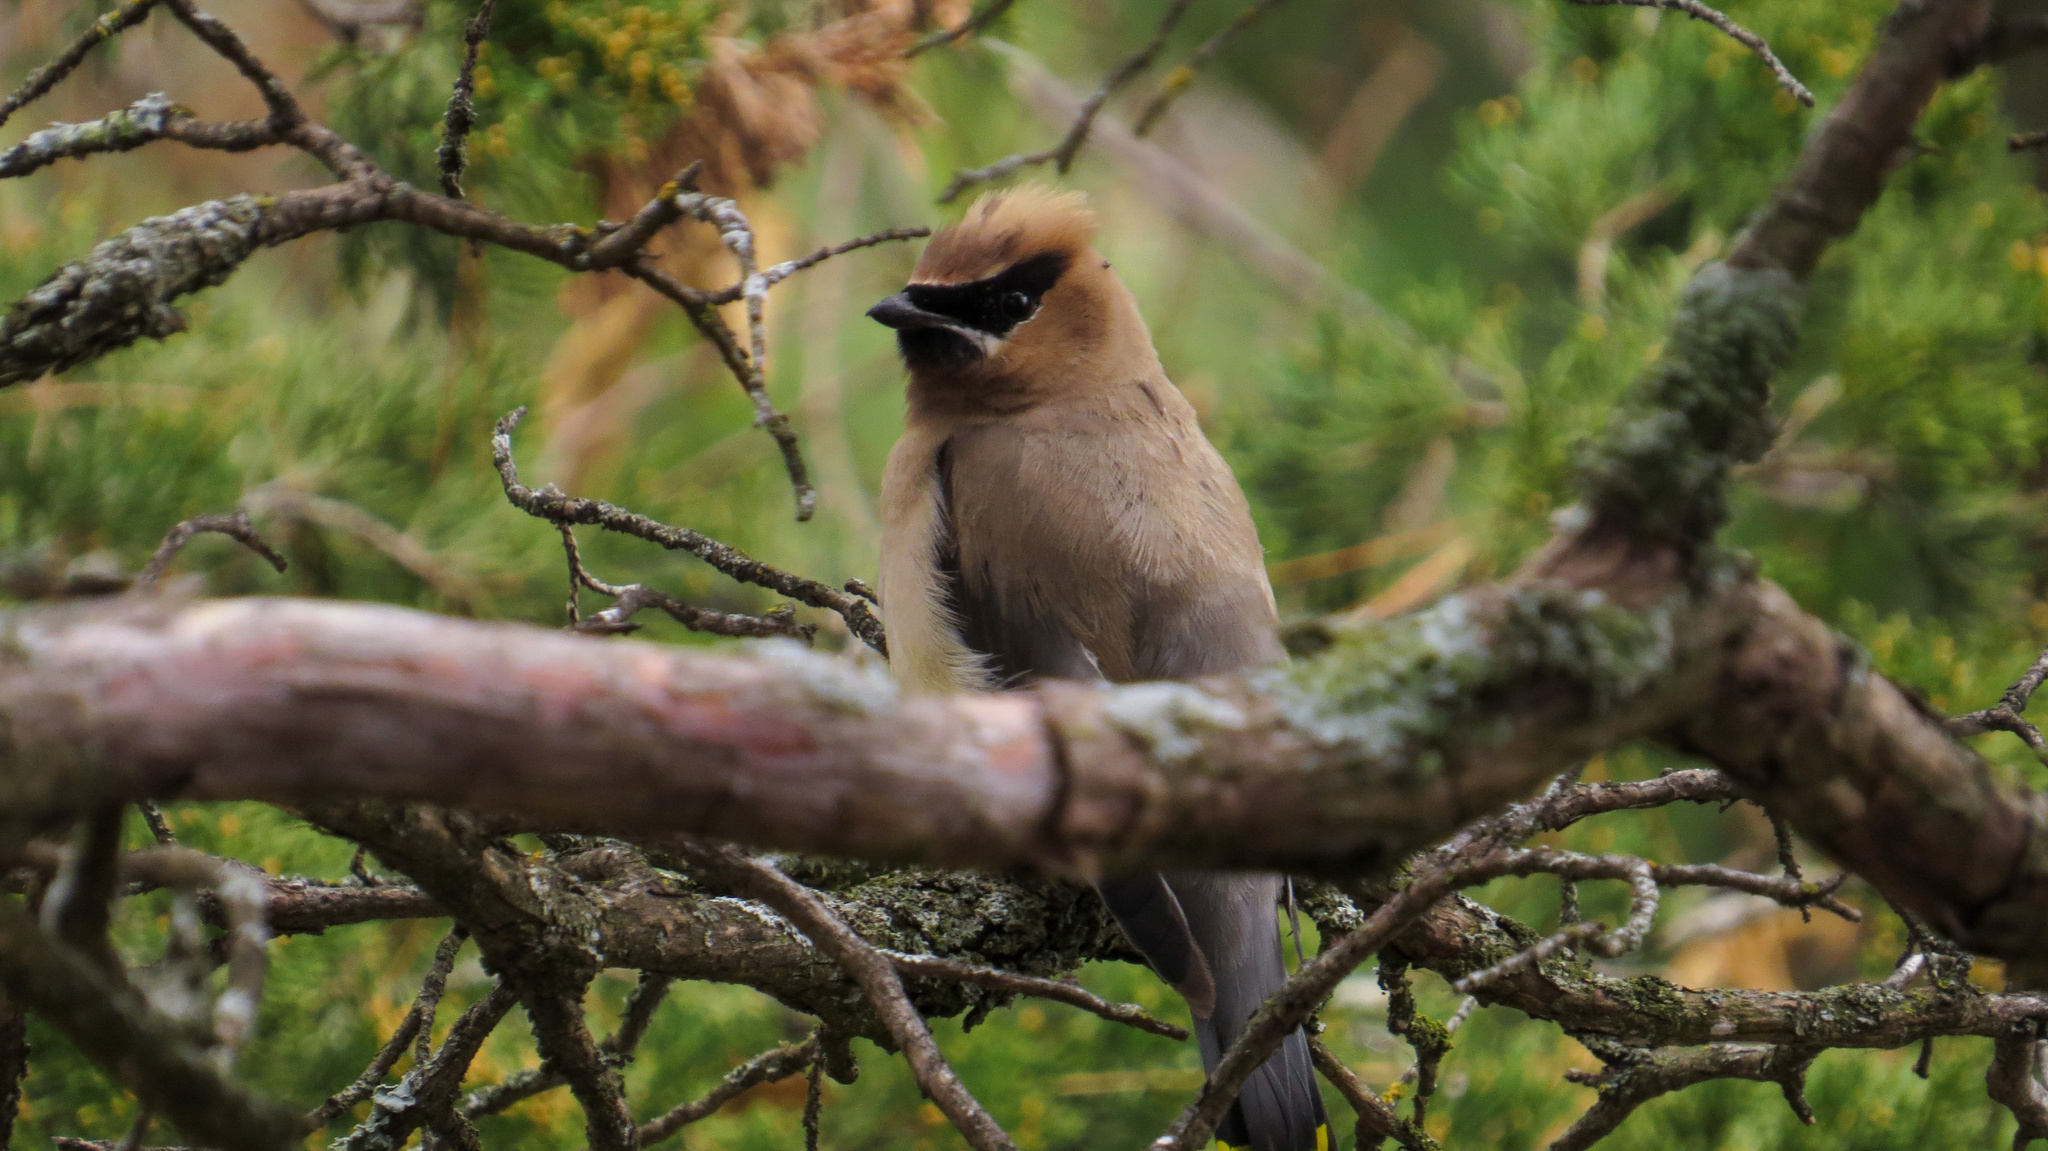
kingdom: Animalia
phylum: Chordata
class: Aves
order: Passeriformes
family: Bombycillidae
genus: Bombycilla
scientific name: Bombycilla cedrorum
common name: Cedar waxwing
